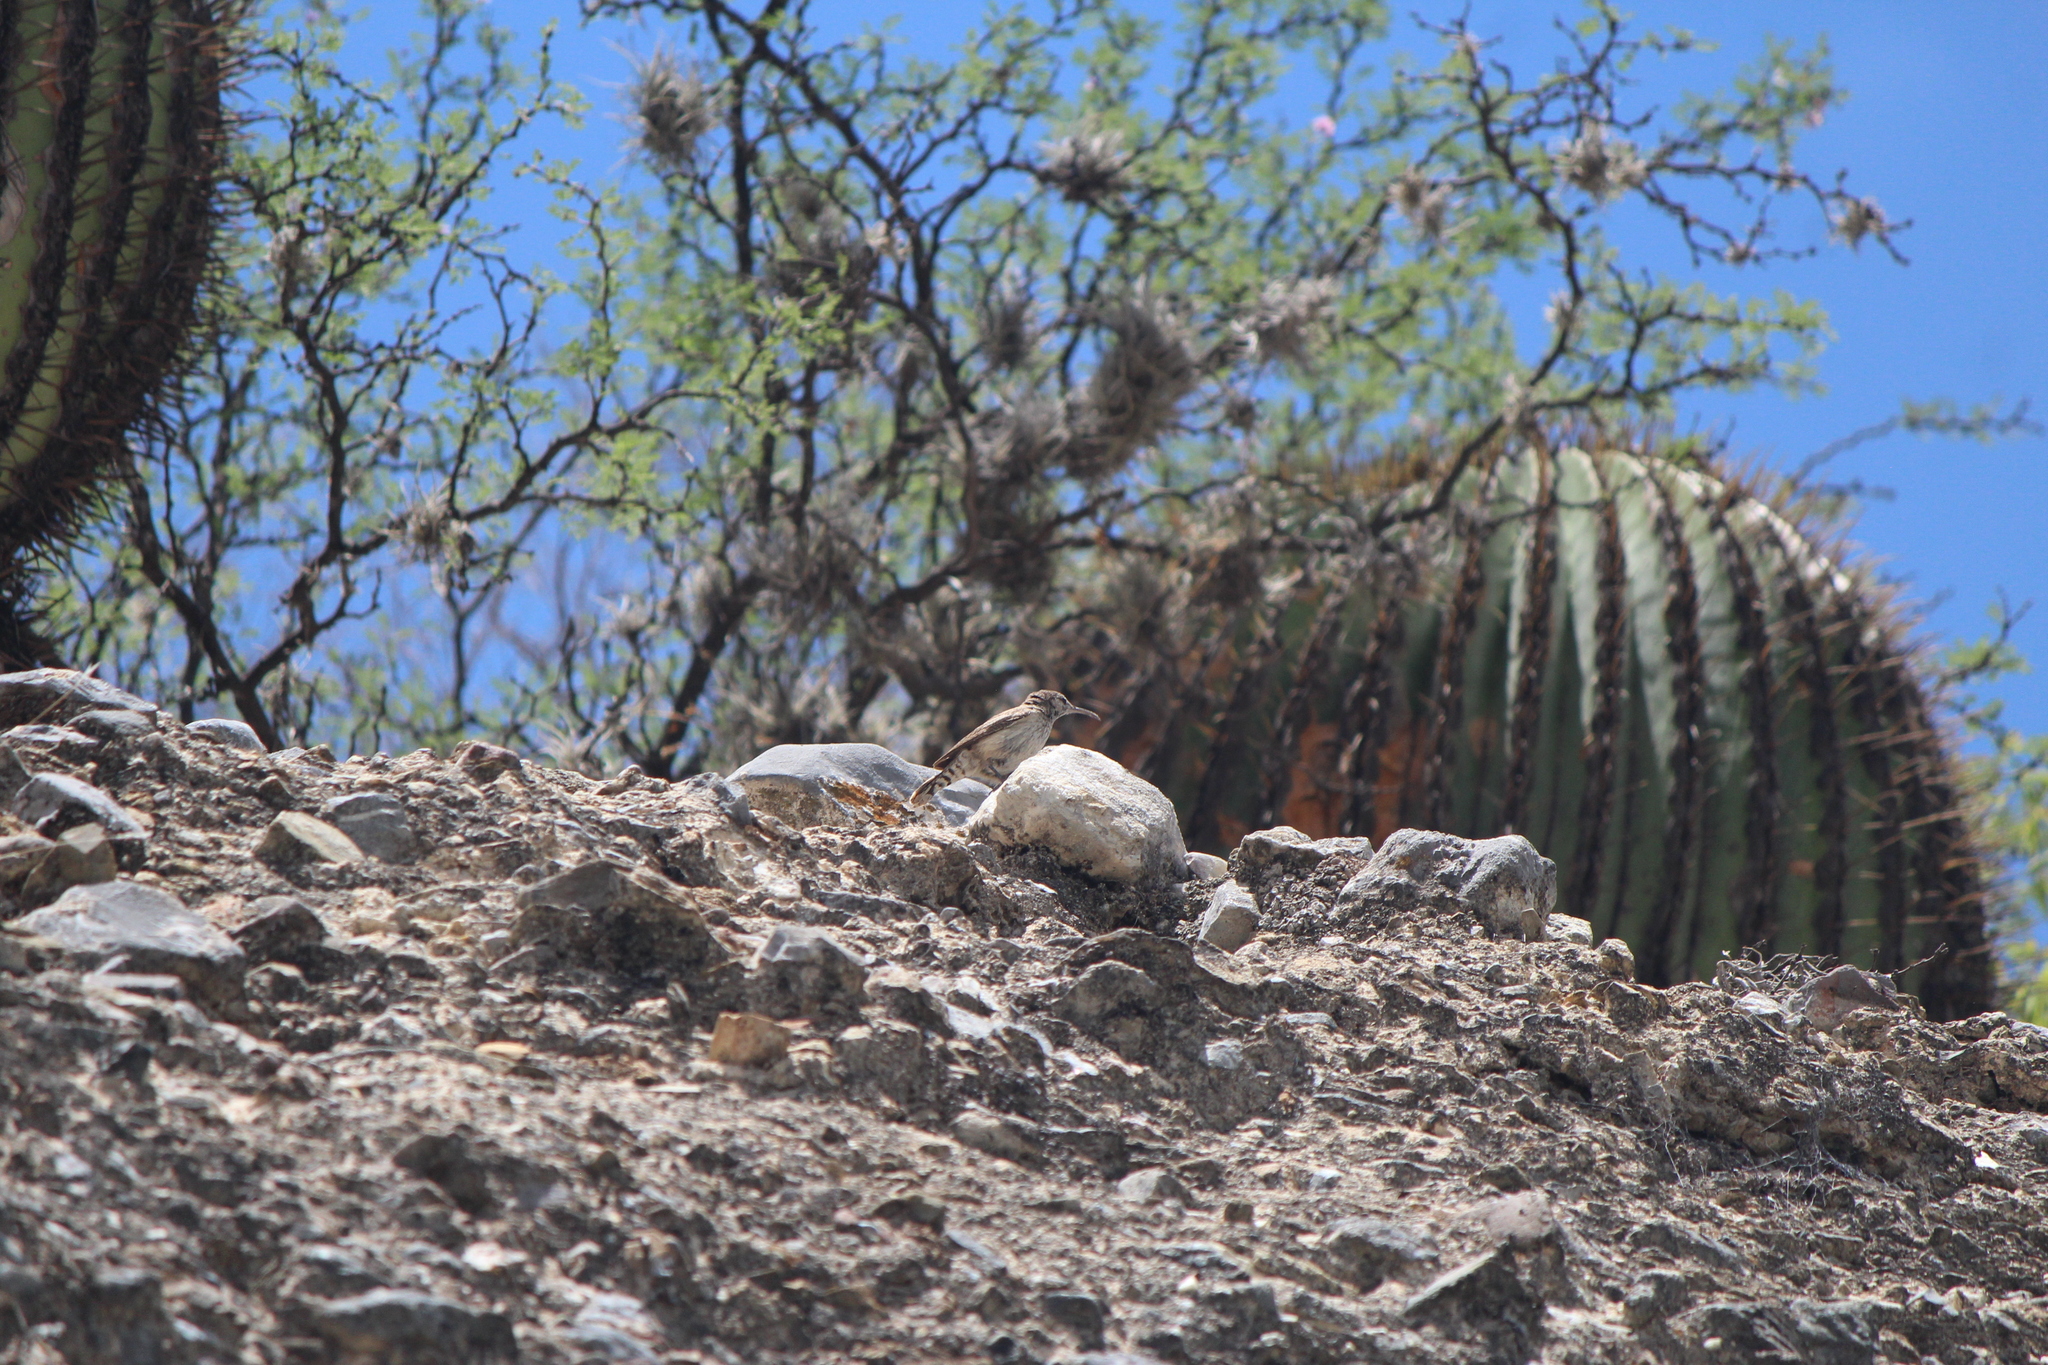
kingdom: Animalia
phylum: Chordata
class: Aves
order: Passeriformes
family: Troglodytidae
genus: Salpinctes
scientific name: Salpinctes obsoletus
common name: Rock wren
